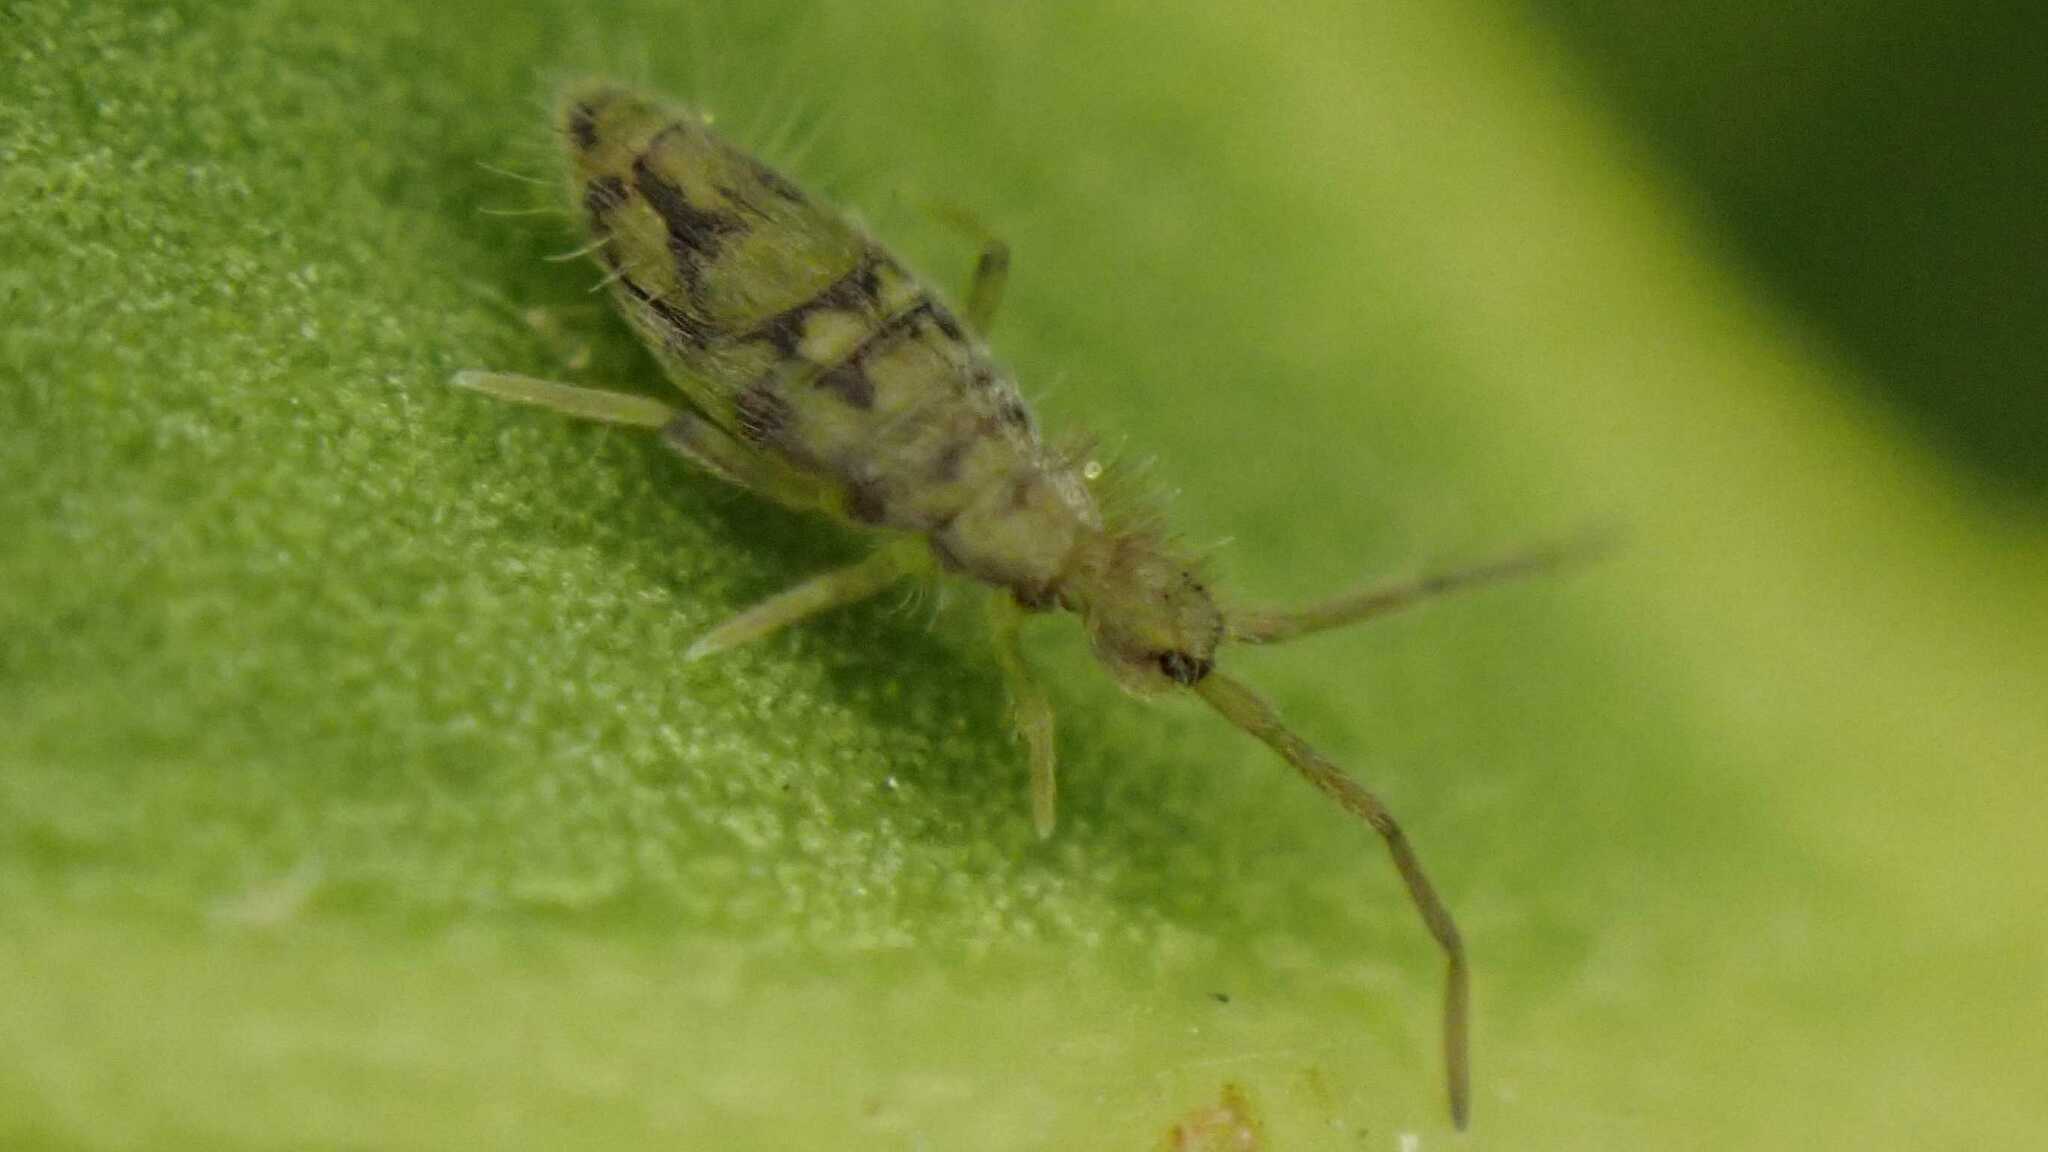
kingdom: Animalia
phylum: Arthropoda
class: Collembola
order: Entomobryomorpha
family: Entomobryidae
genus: Entomobrya
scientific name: Entomobrya nivalis
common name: Cosmopolitan springtail
